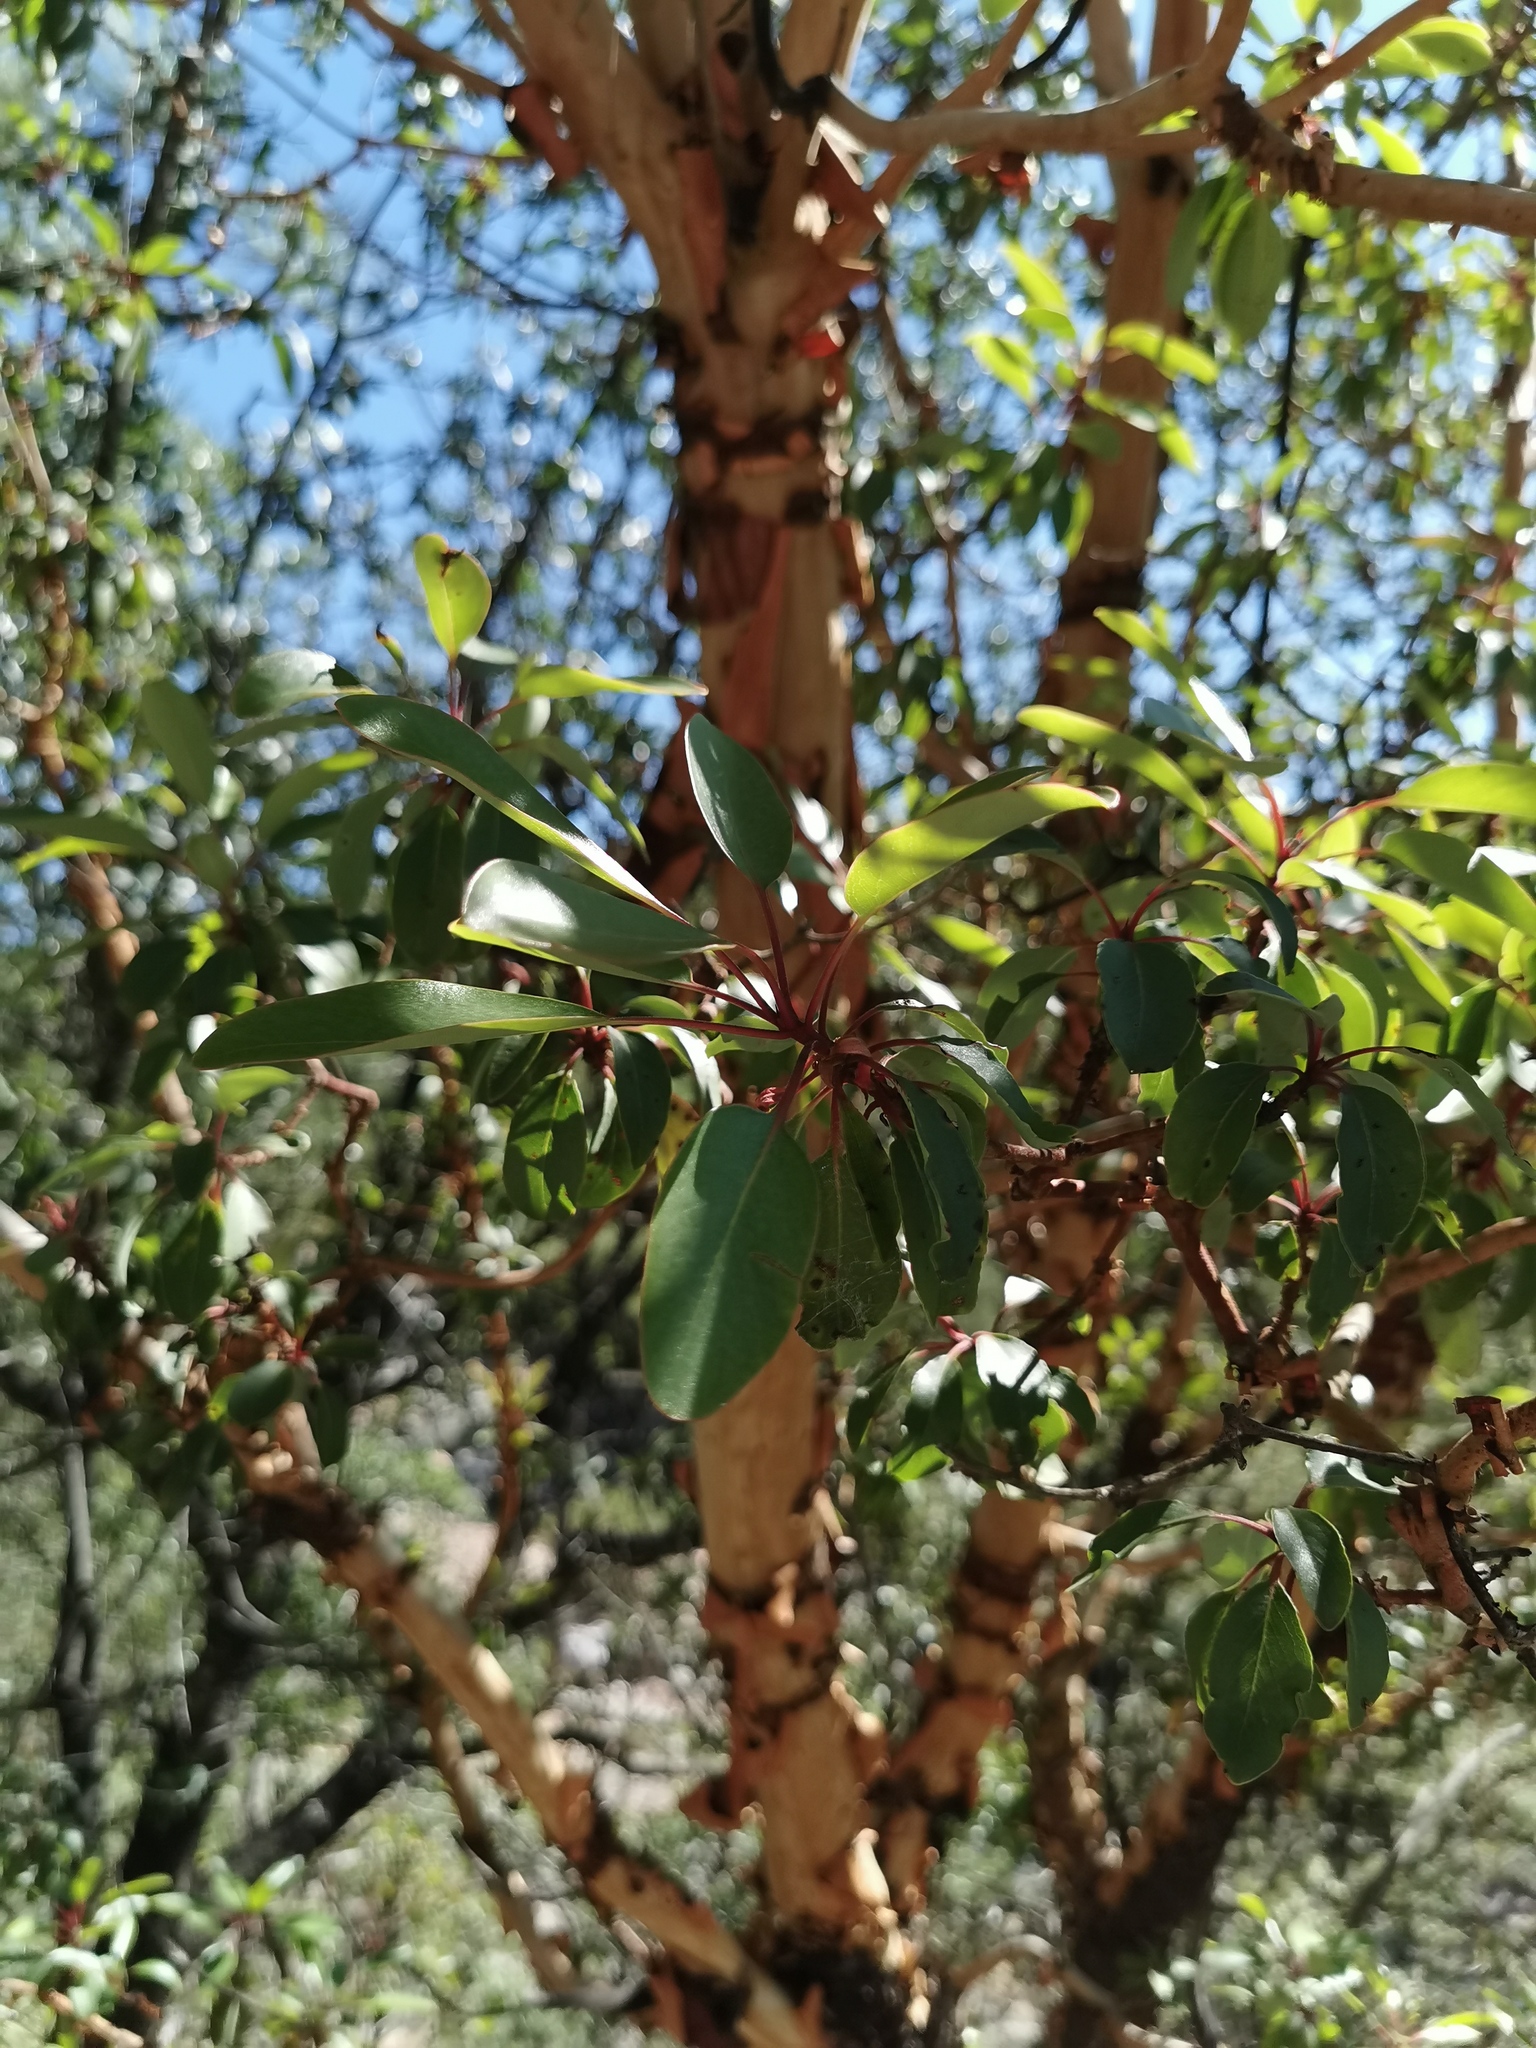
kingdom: Plantae
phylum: Tracheophyta
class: Magnoliopsida
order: Ericales
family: Ericaceae
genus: Arbutus
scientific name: Arbutus arizonica
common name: Arizona madrone
